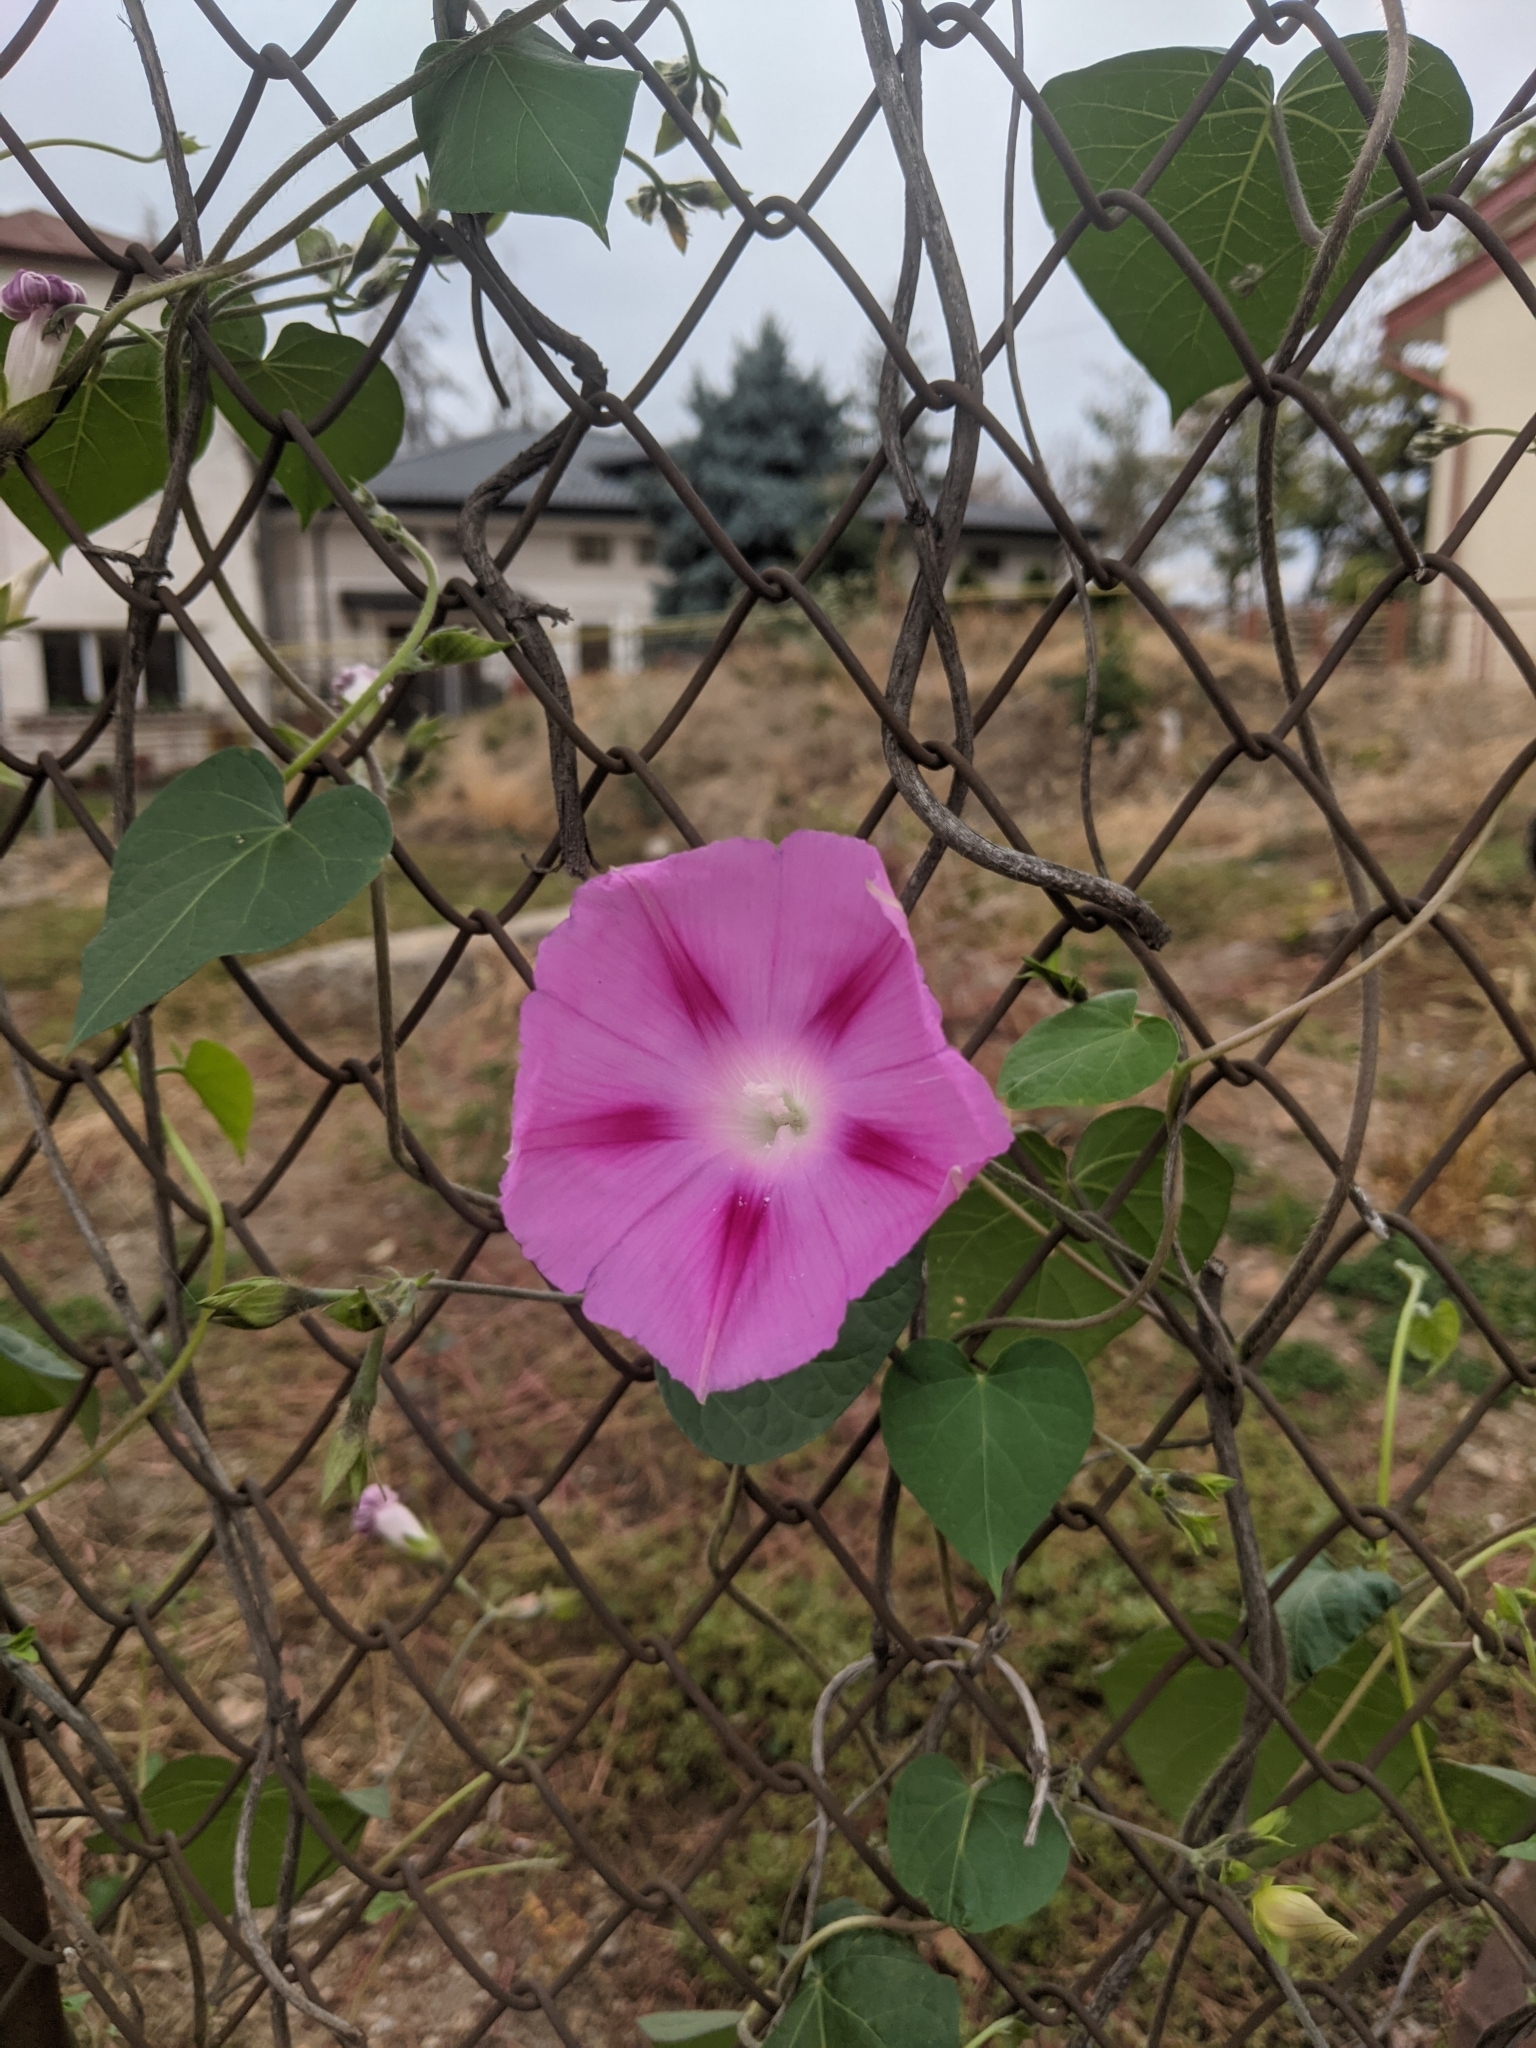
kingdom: Plantae
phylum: Tracheophyta
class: Magnoliopsida
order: Solanales
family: Convolvulaceae
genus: Ipomoea
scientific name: Ipomoea purpurea
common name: Common morning-glory
